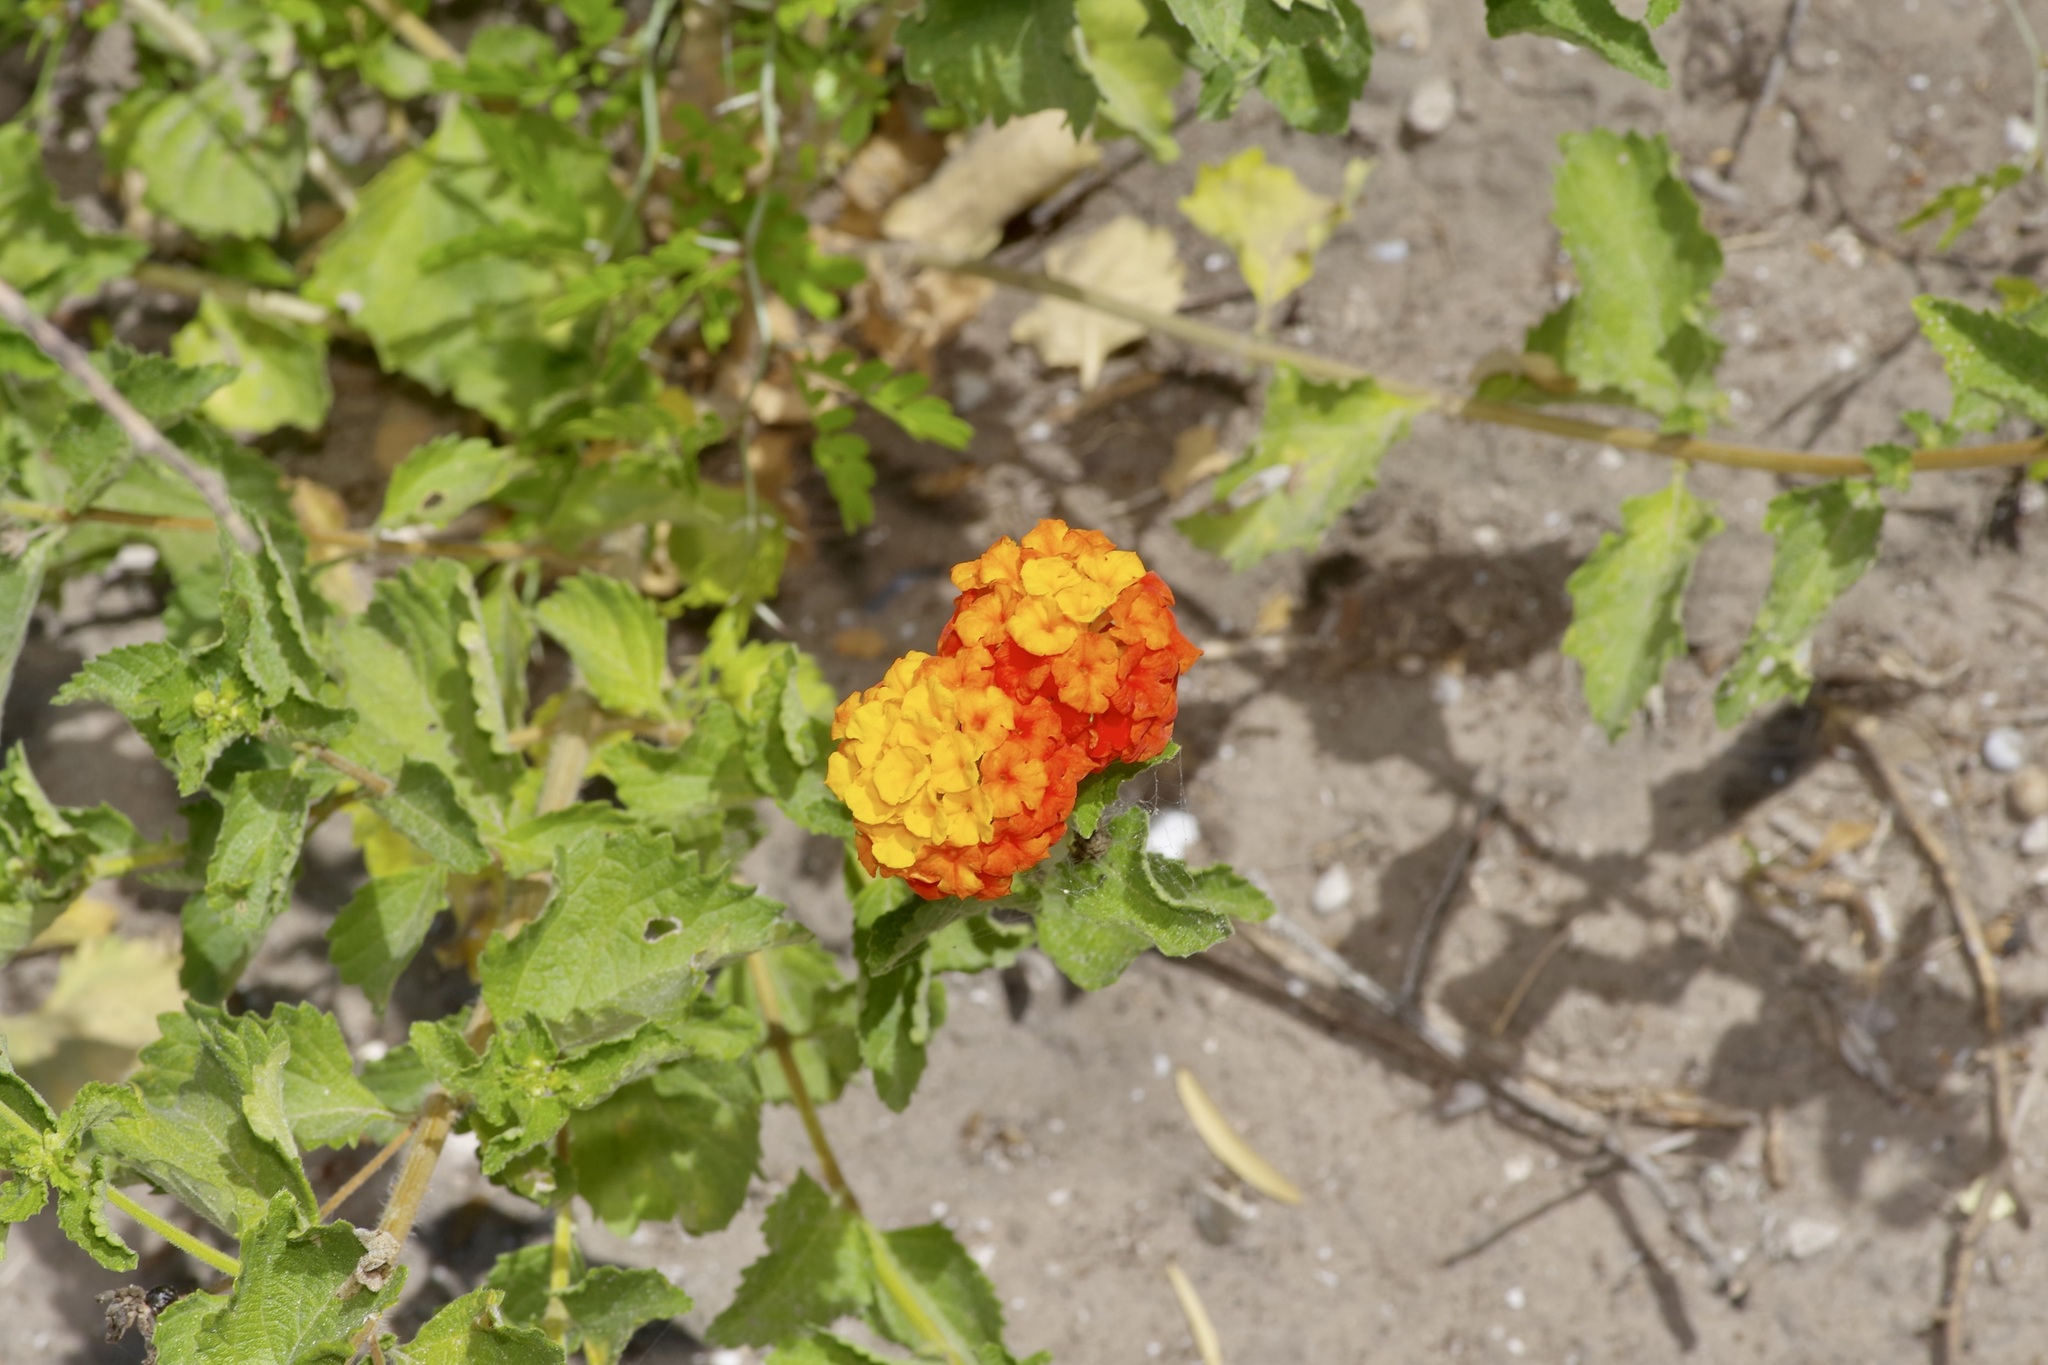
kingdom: Plantae
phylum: Tracheophyta
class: Magnoliopsida
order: Lamiales
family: Verbenaceae
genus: Lantana
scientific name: Lantana urticoides
